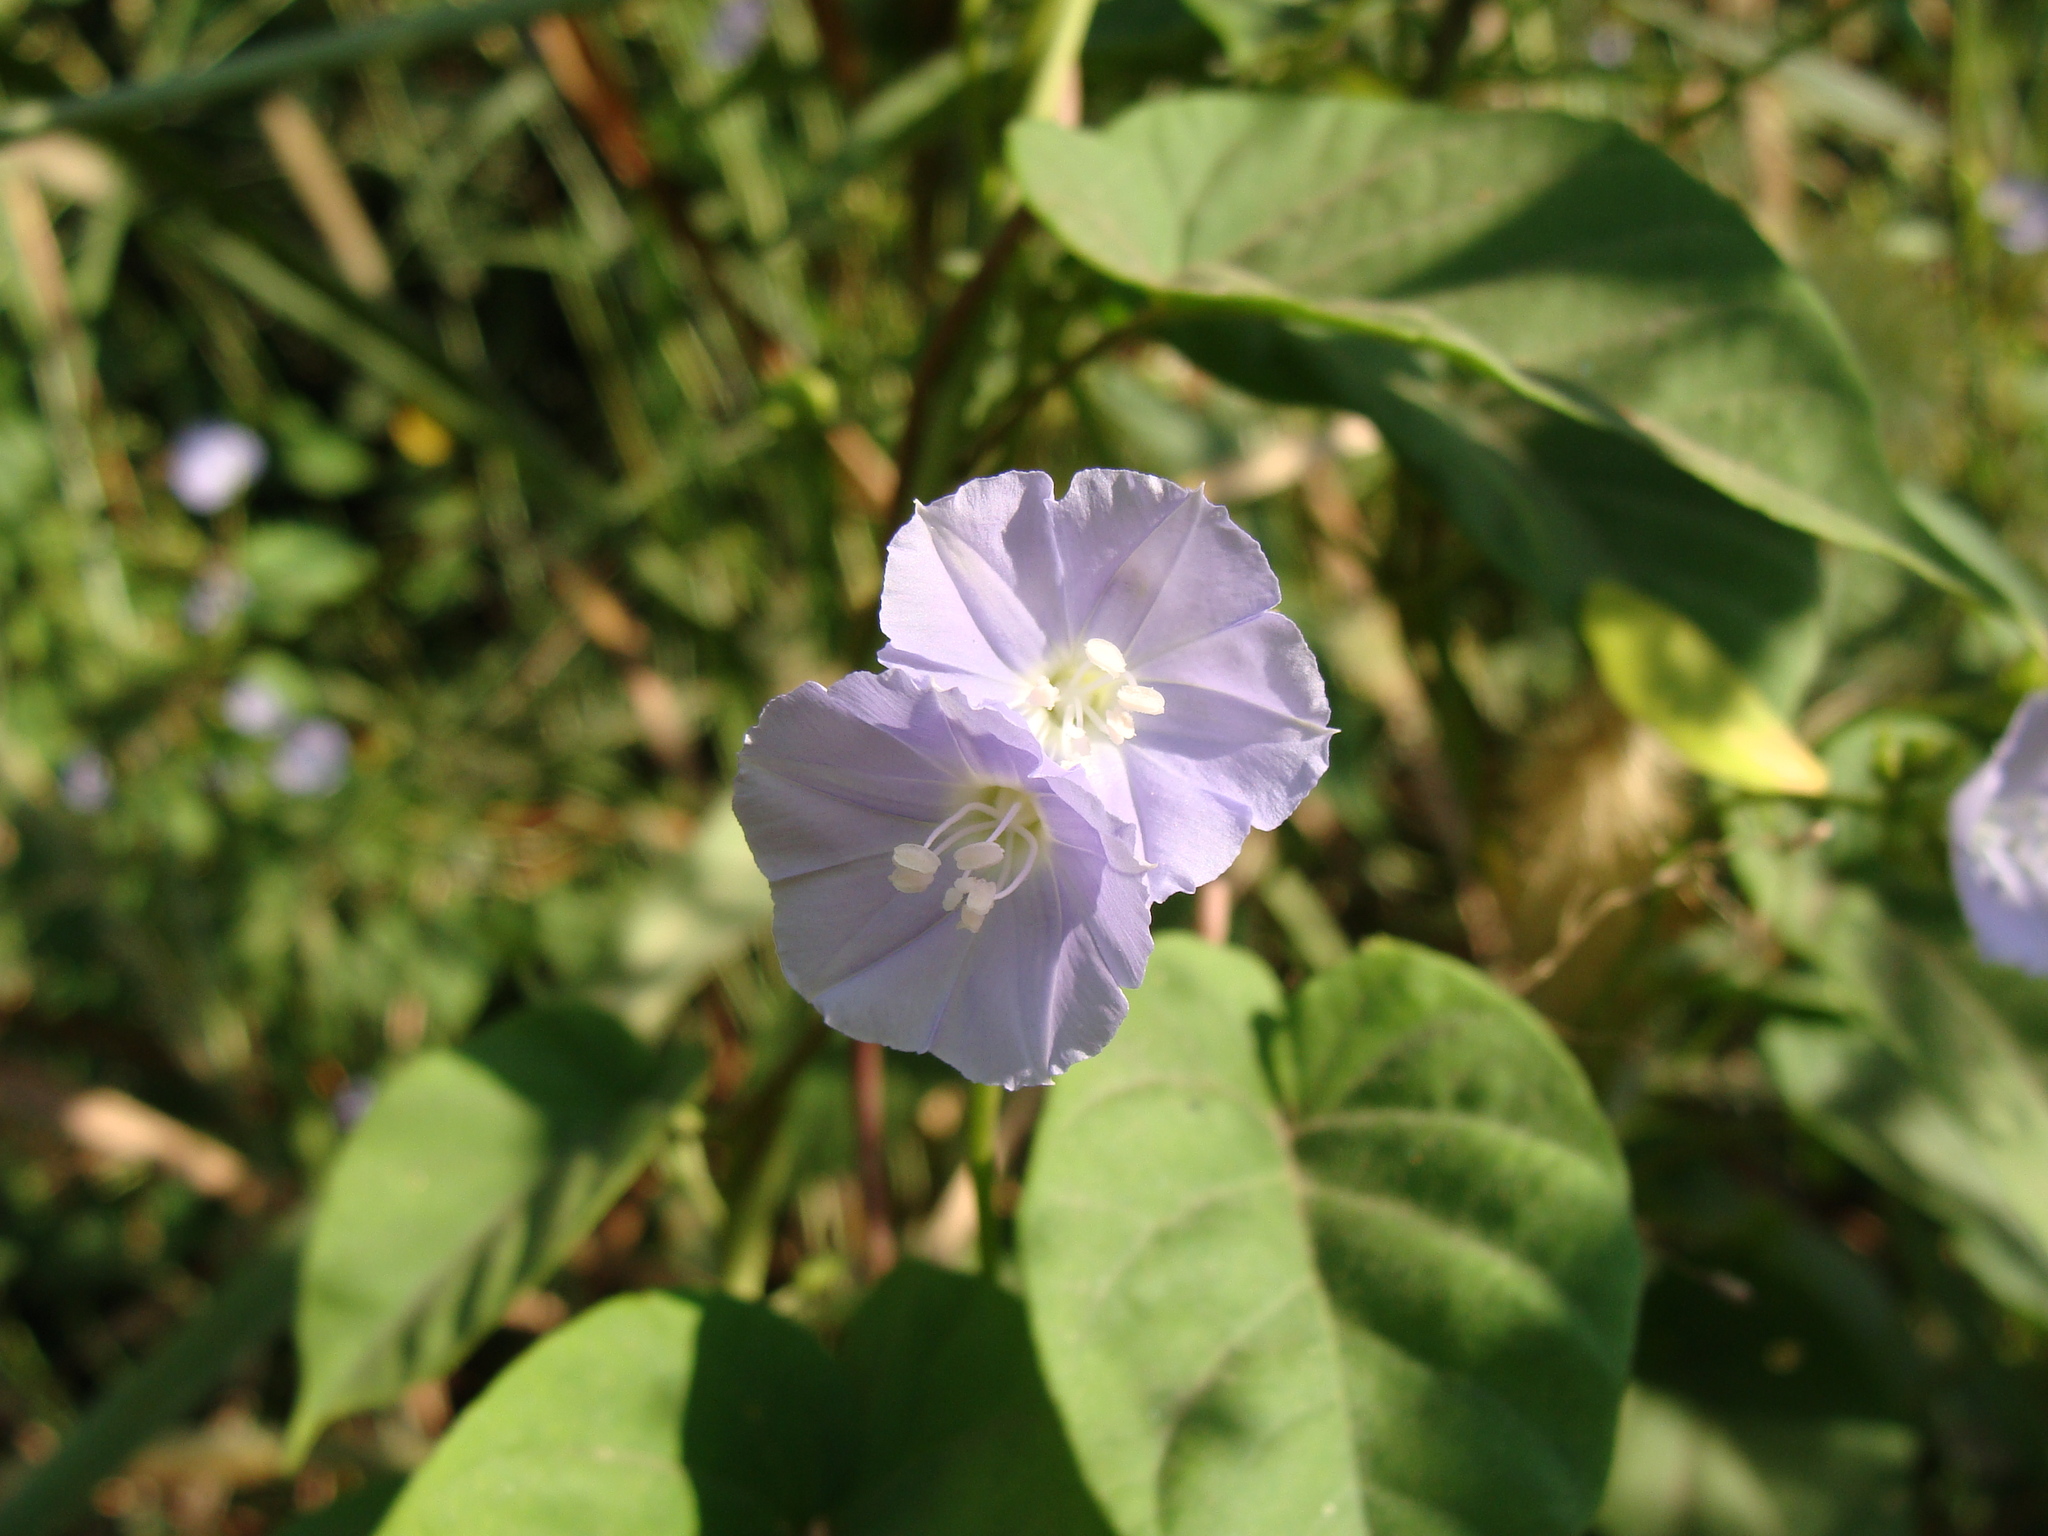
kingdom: Plantae
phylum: Tracheophyta
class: Magnoliopsida
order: Solanales
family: Convolvulaceae
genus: Jacquemontia
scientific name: Jacquemontia oaxacana
